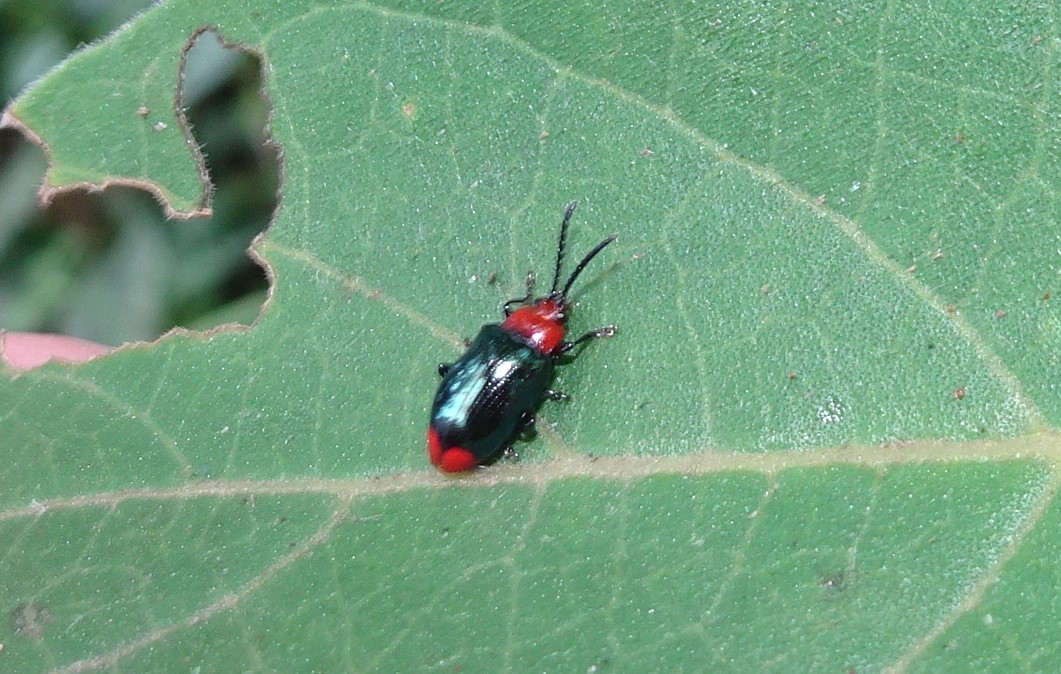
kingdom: Animalia
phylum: Arthropoda
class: Insecta
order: Coleoptera
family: Chrysomelidae
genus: Phyllocharis
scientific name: Phyllocharis
